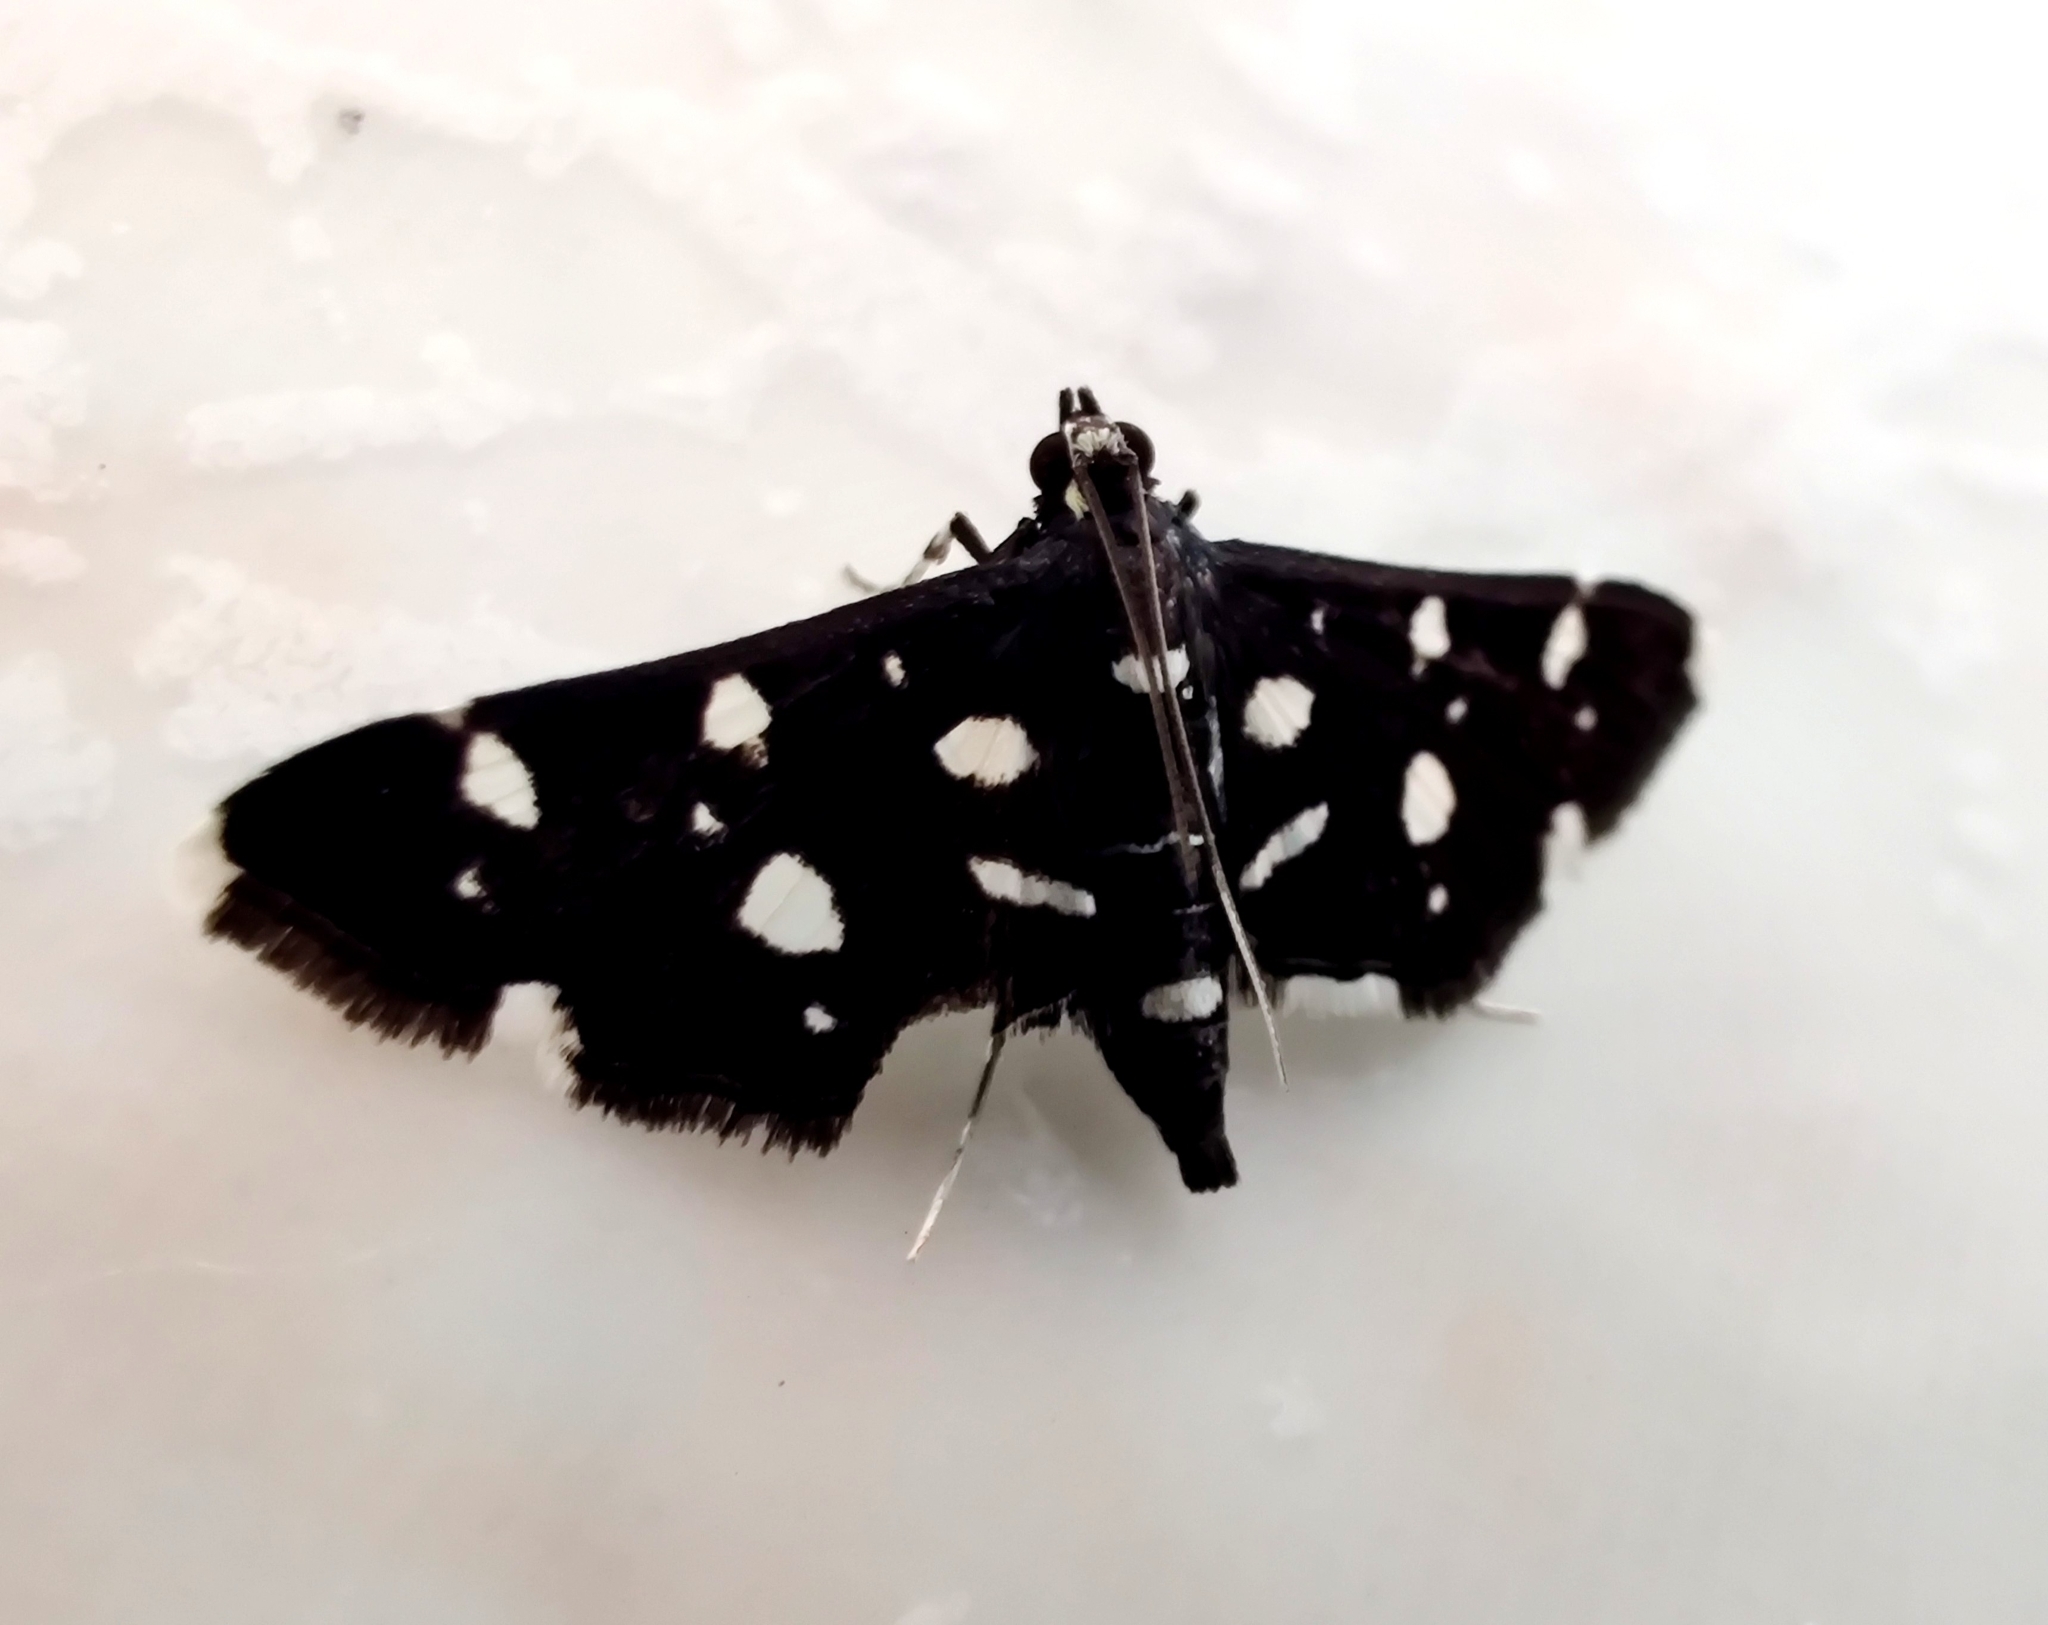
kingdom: Animalia
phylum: Arthropoda
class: Insecta
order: Lepidoptera
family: Crambidae
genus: Bocchoris
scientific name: Bocchoris inspersalis
